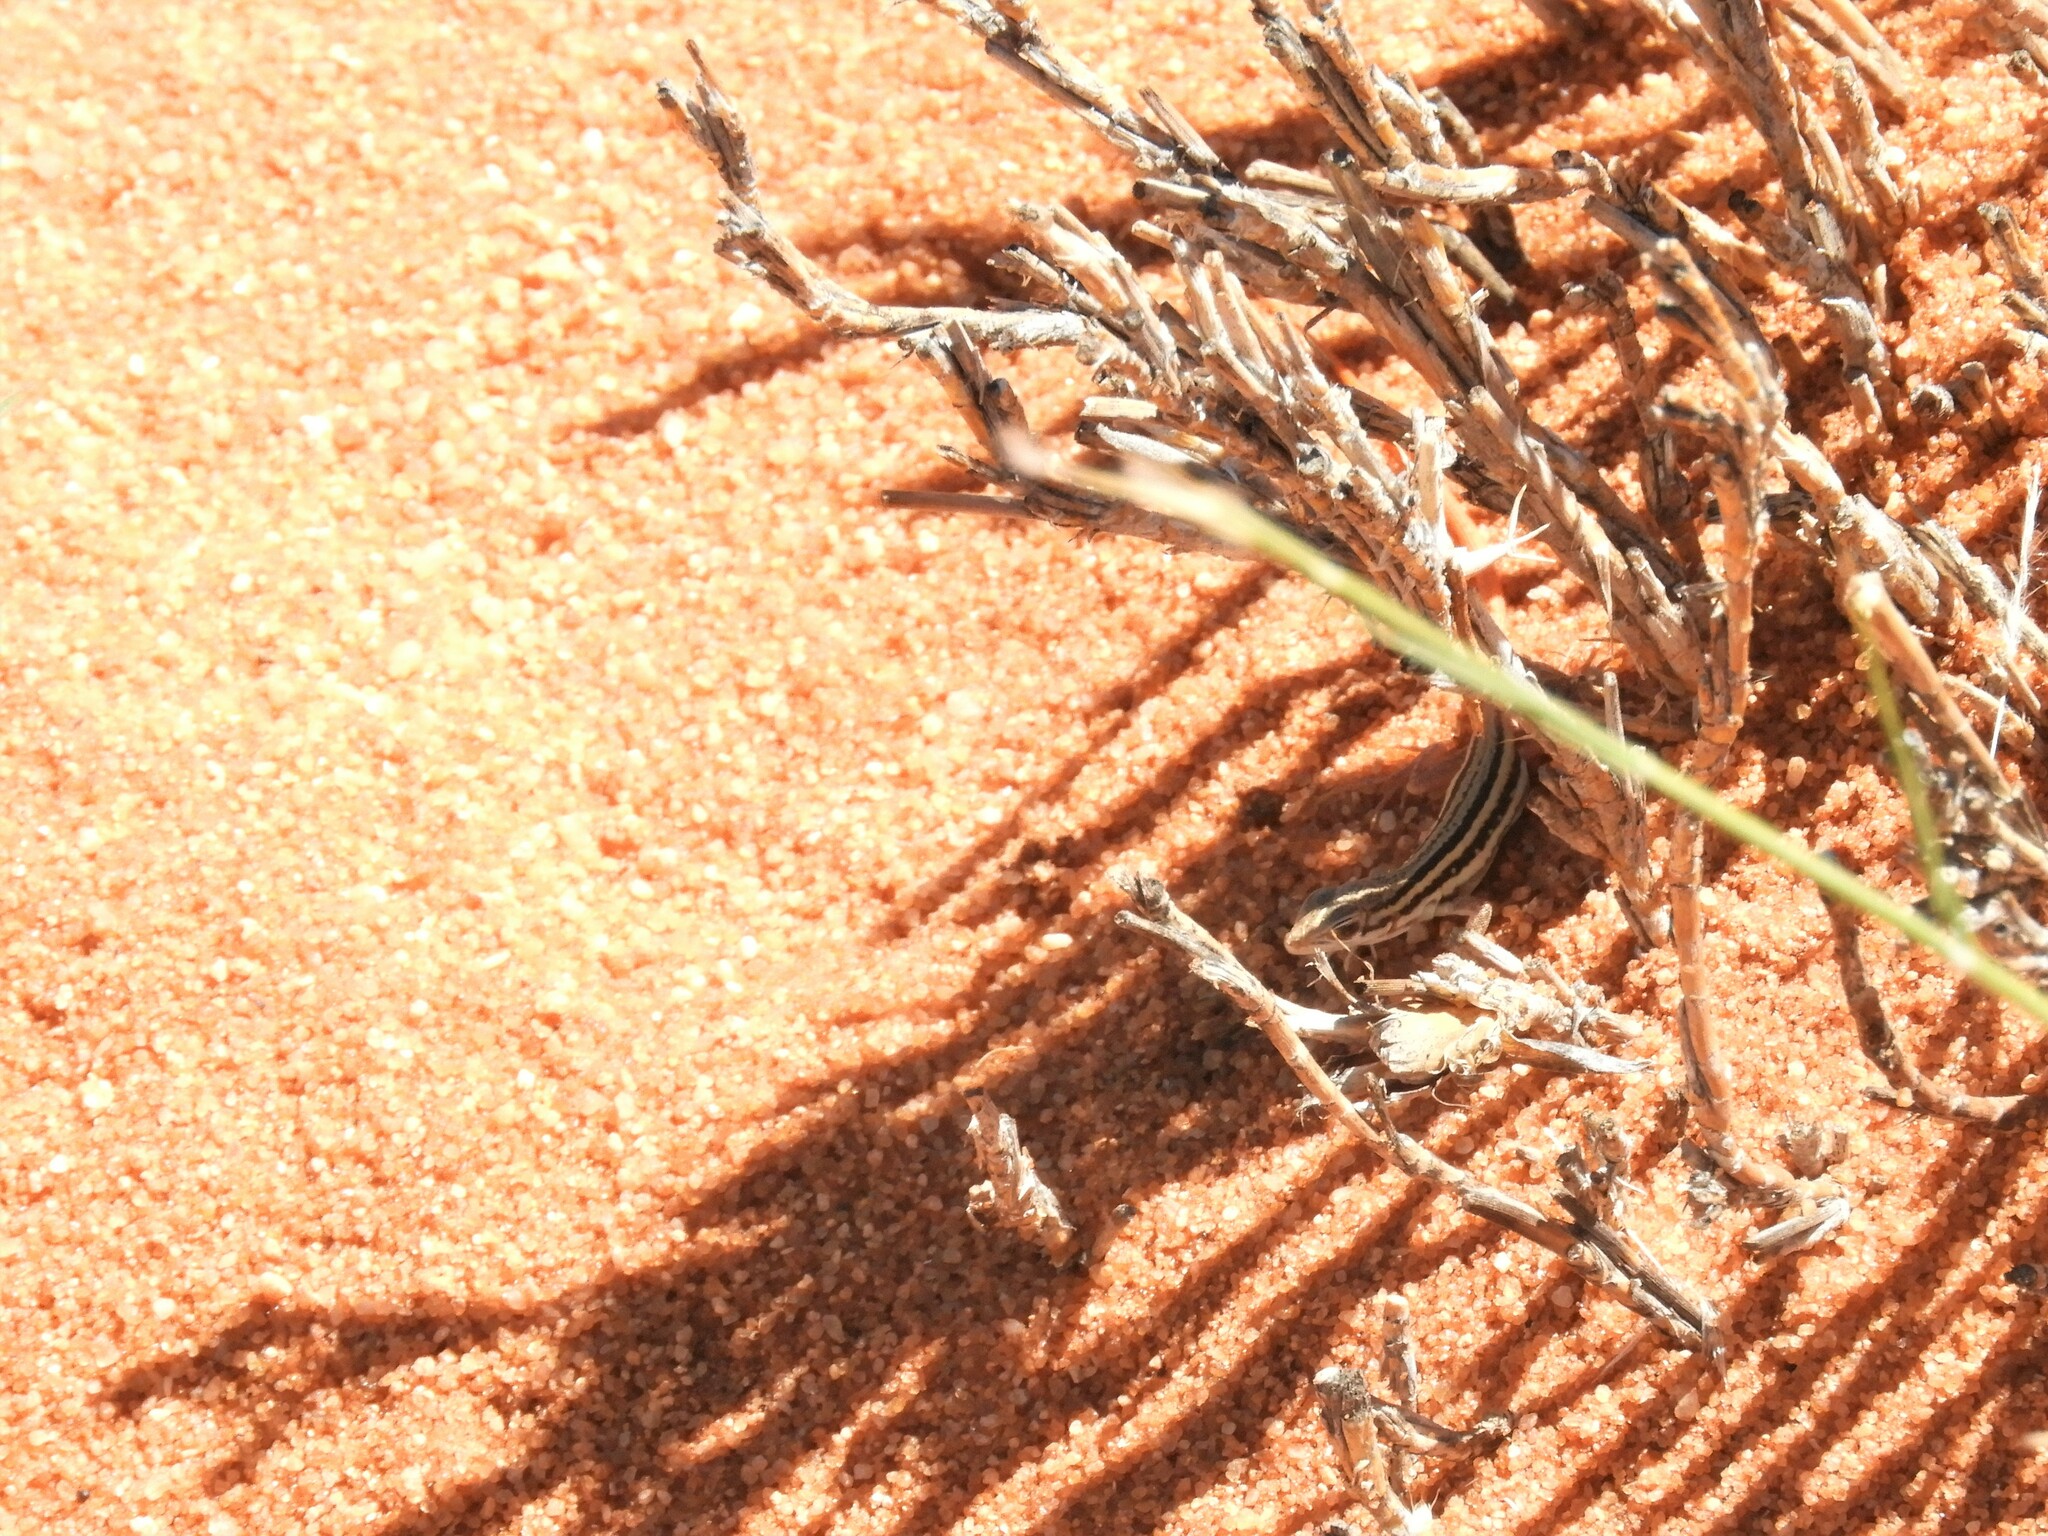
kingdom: Animalia
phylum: Chordata
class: Squamata
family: Lacertidae
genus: Pedioplanis
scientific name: Pedioplanis lineoocellata
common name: Spotted sand lizard
